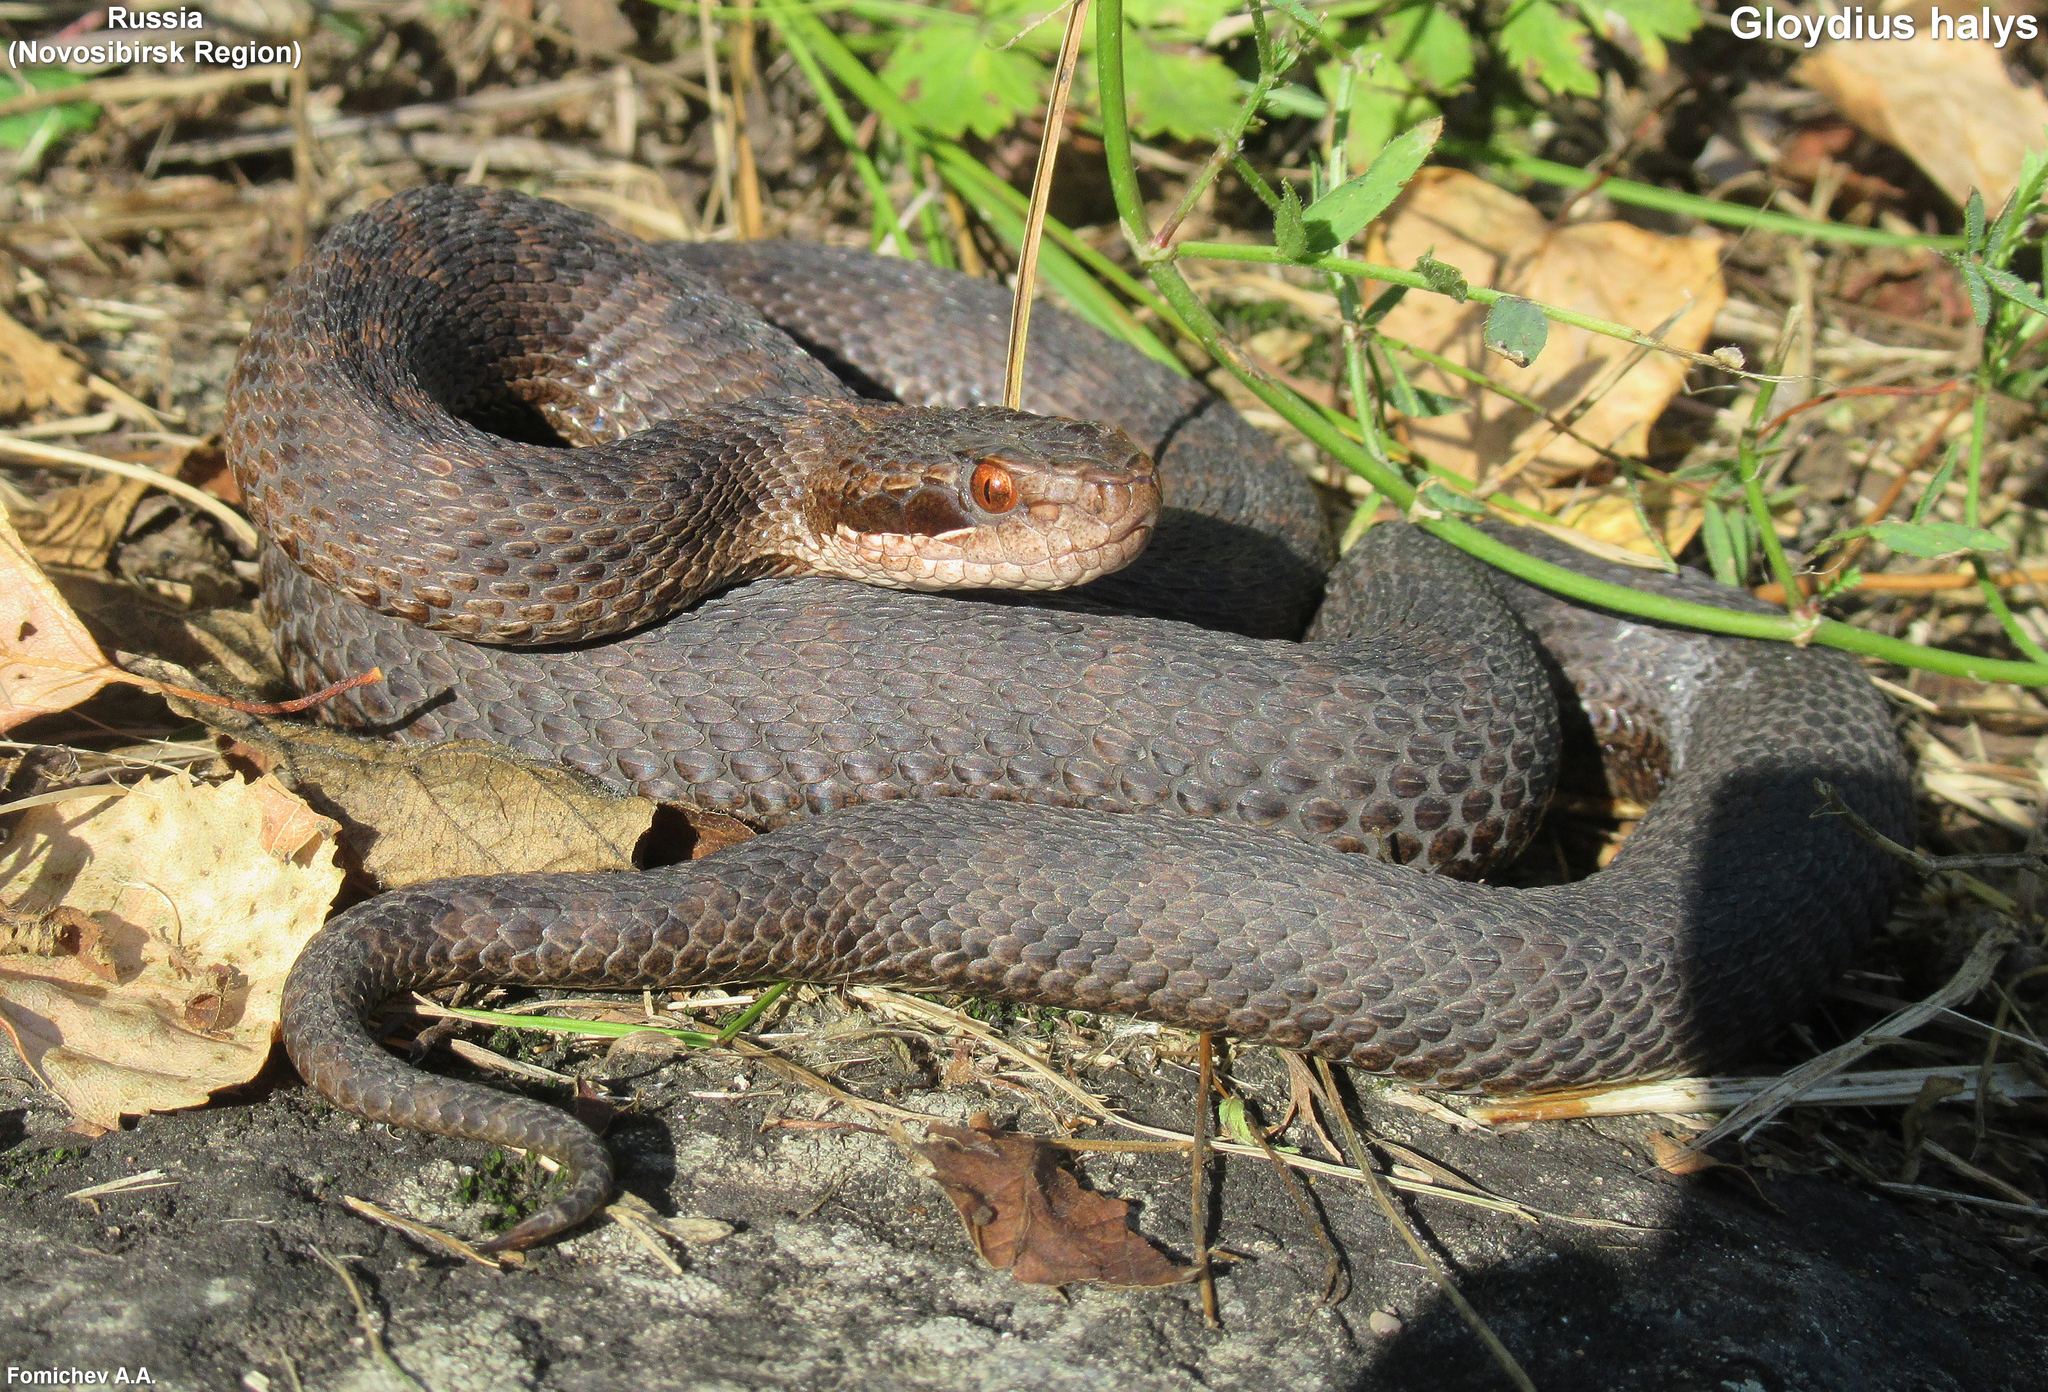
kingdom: Animalia
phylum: Chordata
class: Squamata
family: Viperidae
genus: Gloydius
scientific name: Gloydius halys
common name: Halys pit viper
